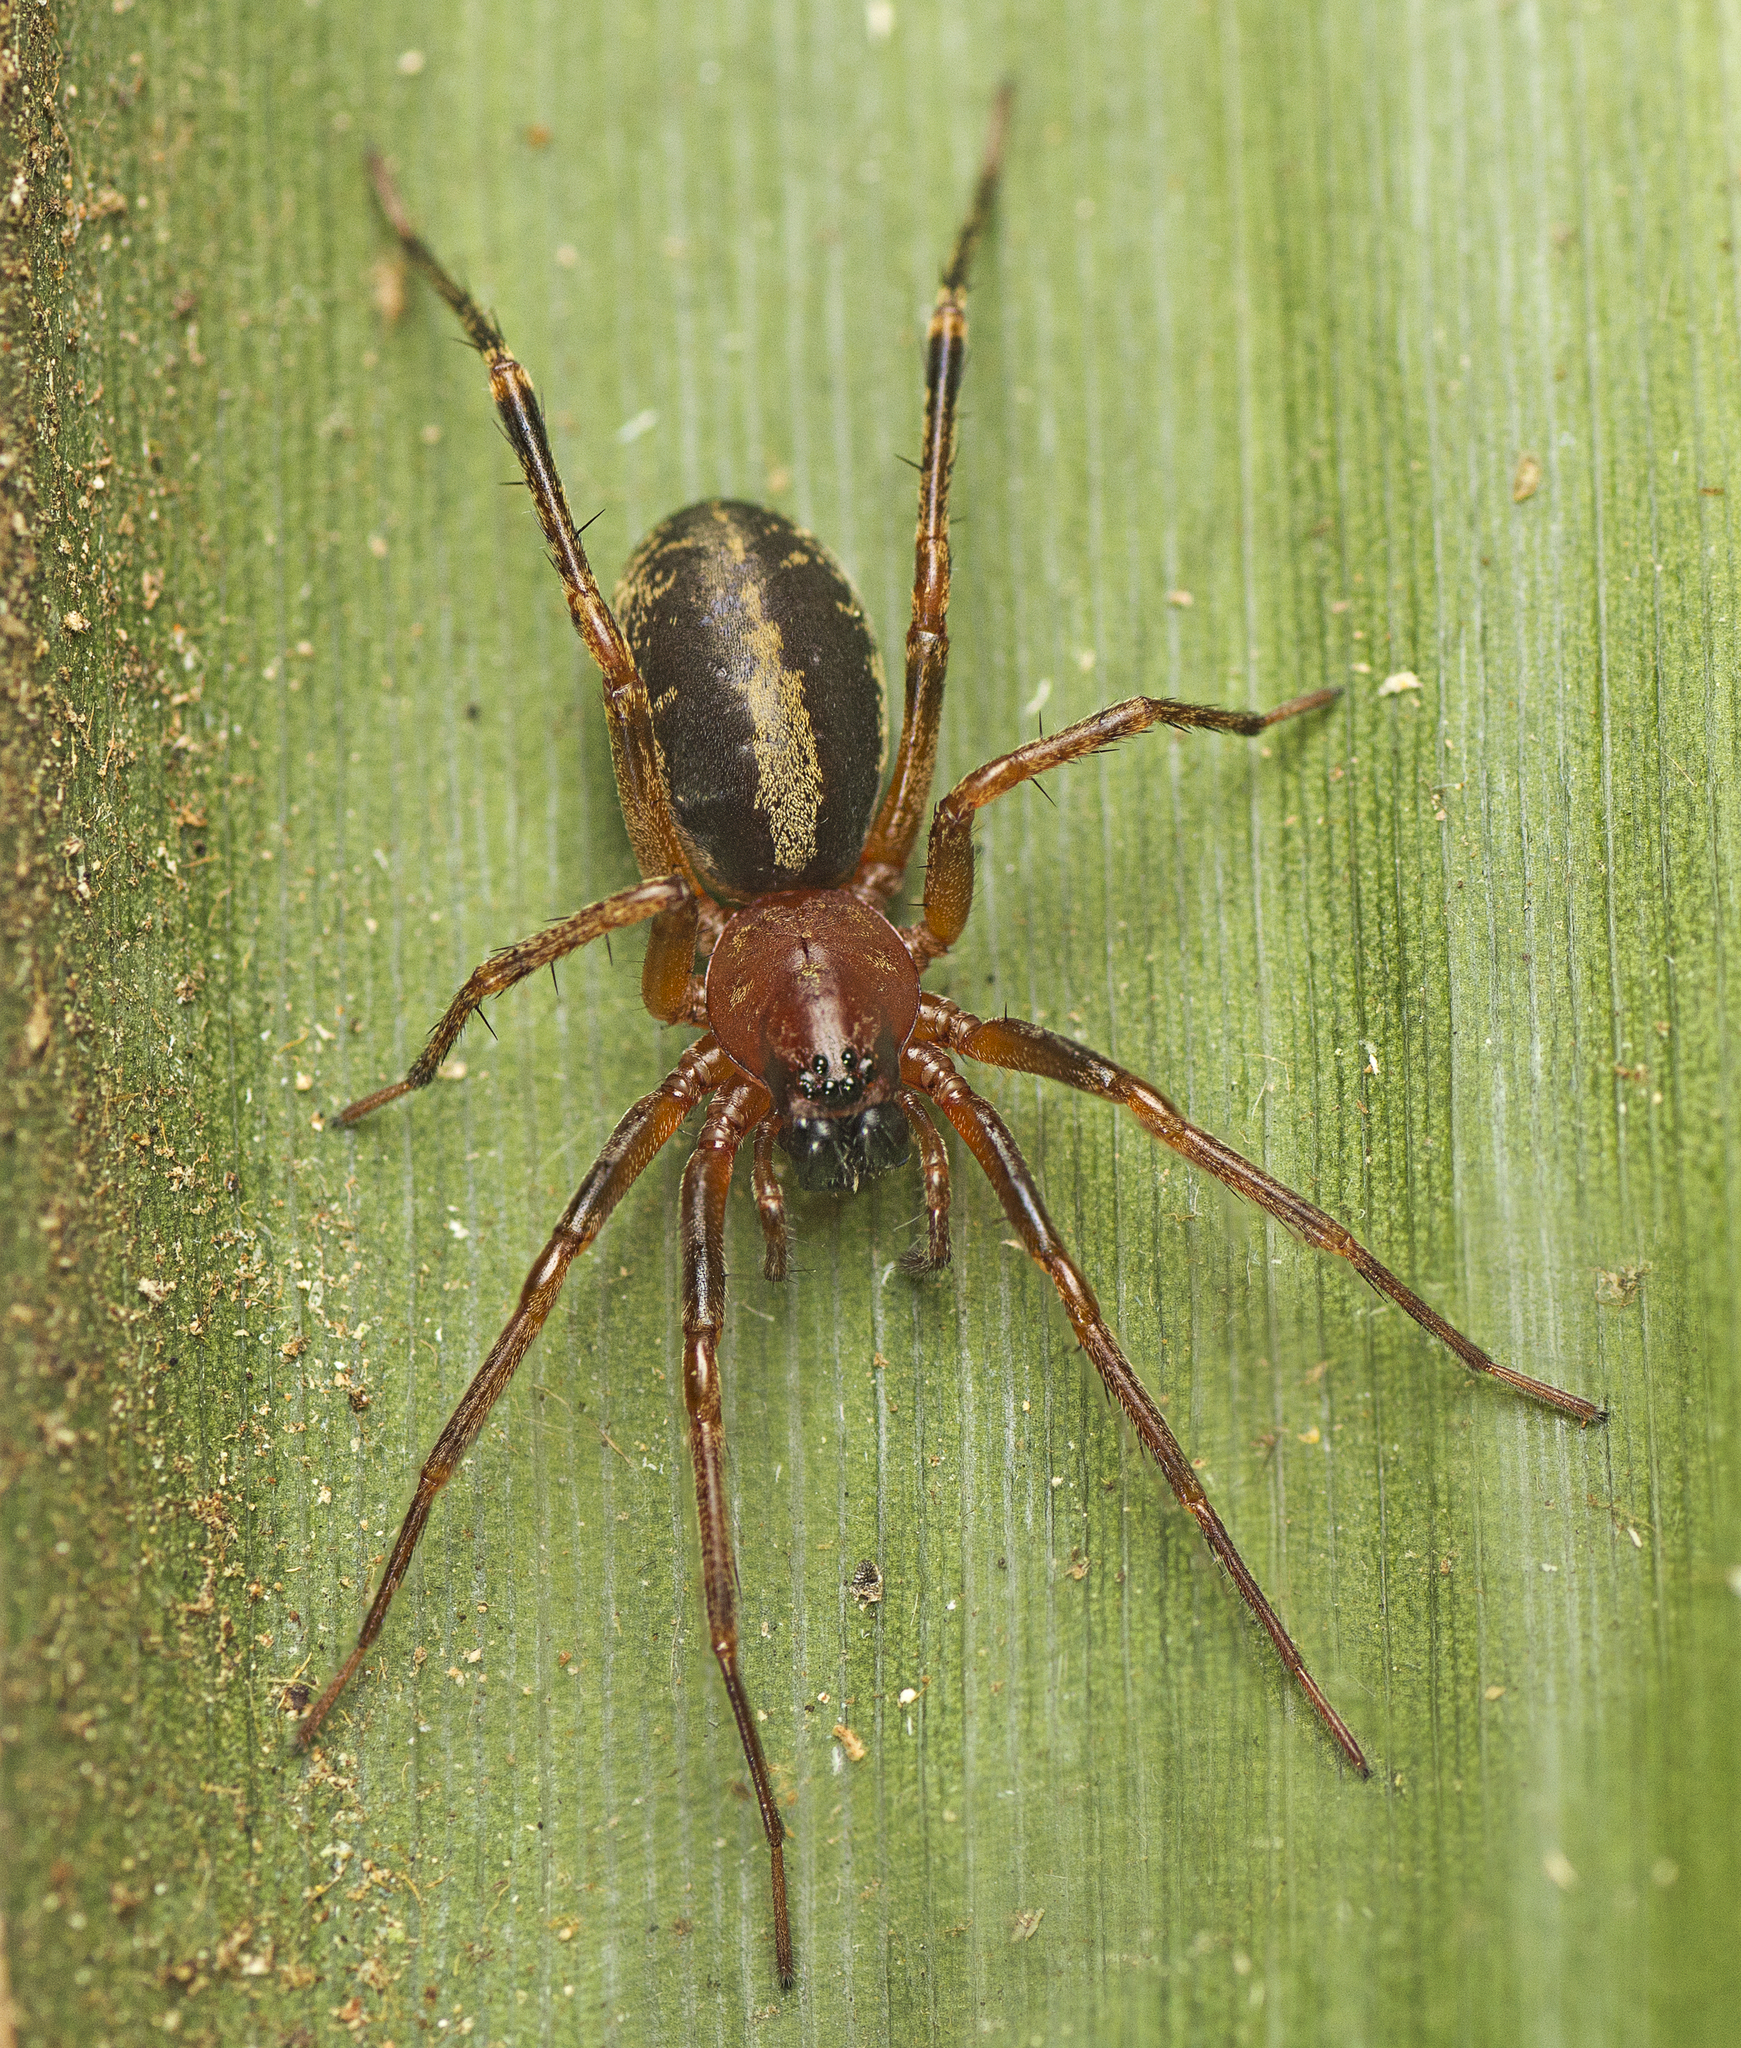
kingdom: Animalia
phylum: Arthropoda
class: Arachnida
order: Araneae
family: Corinnidae
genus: Copa
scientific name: Copa kabana
